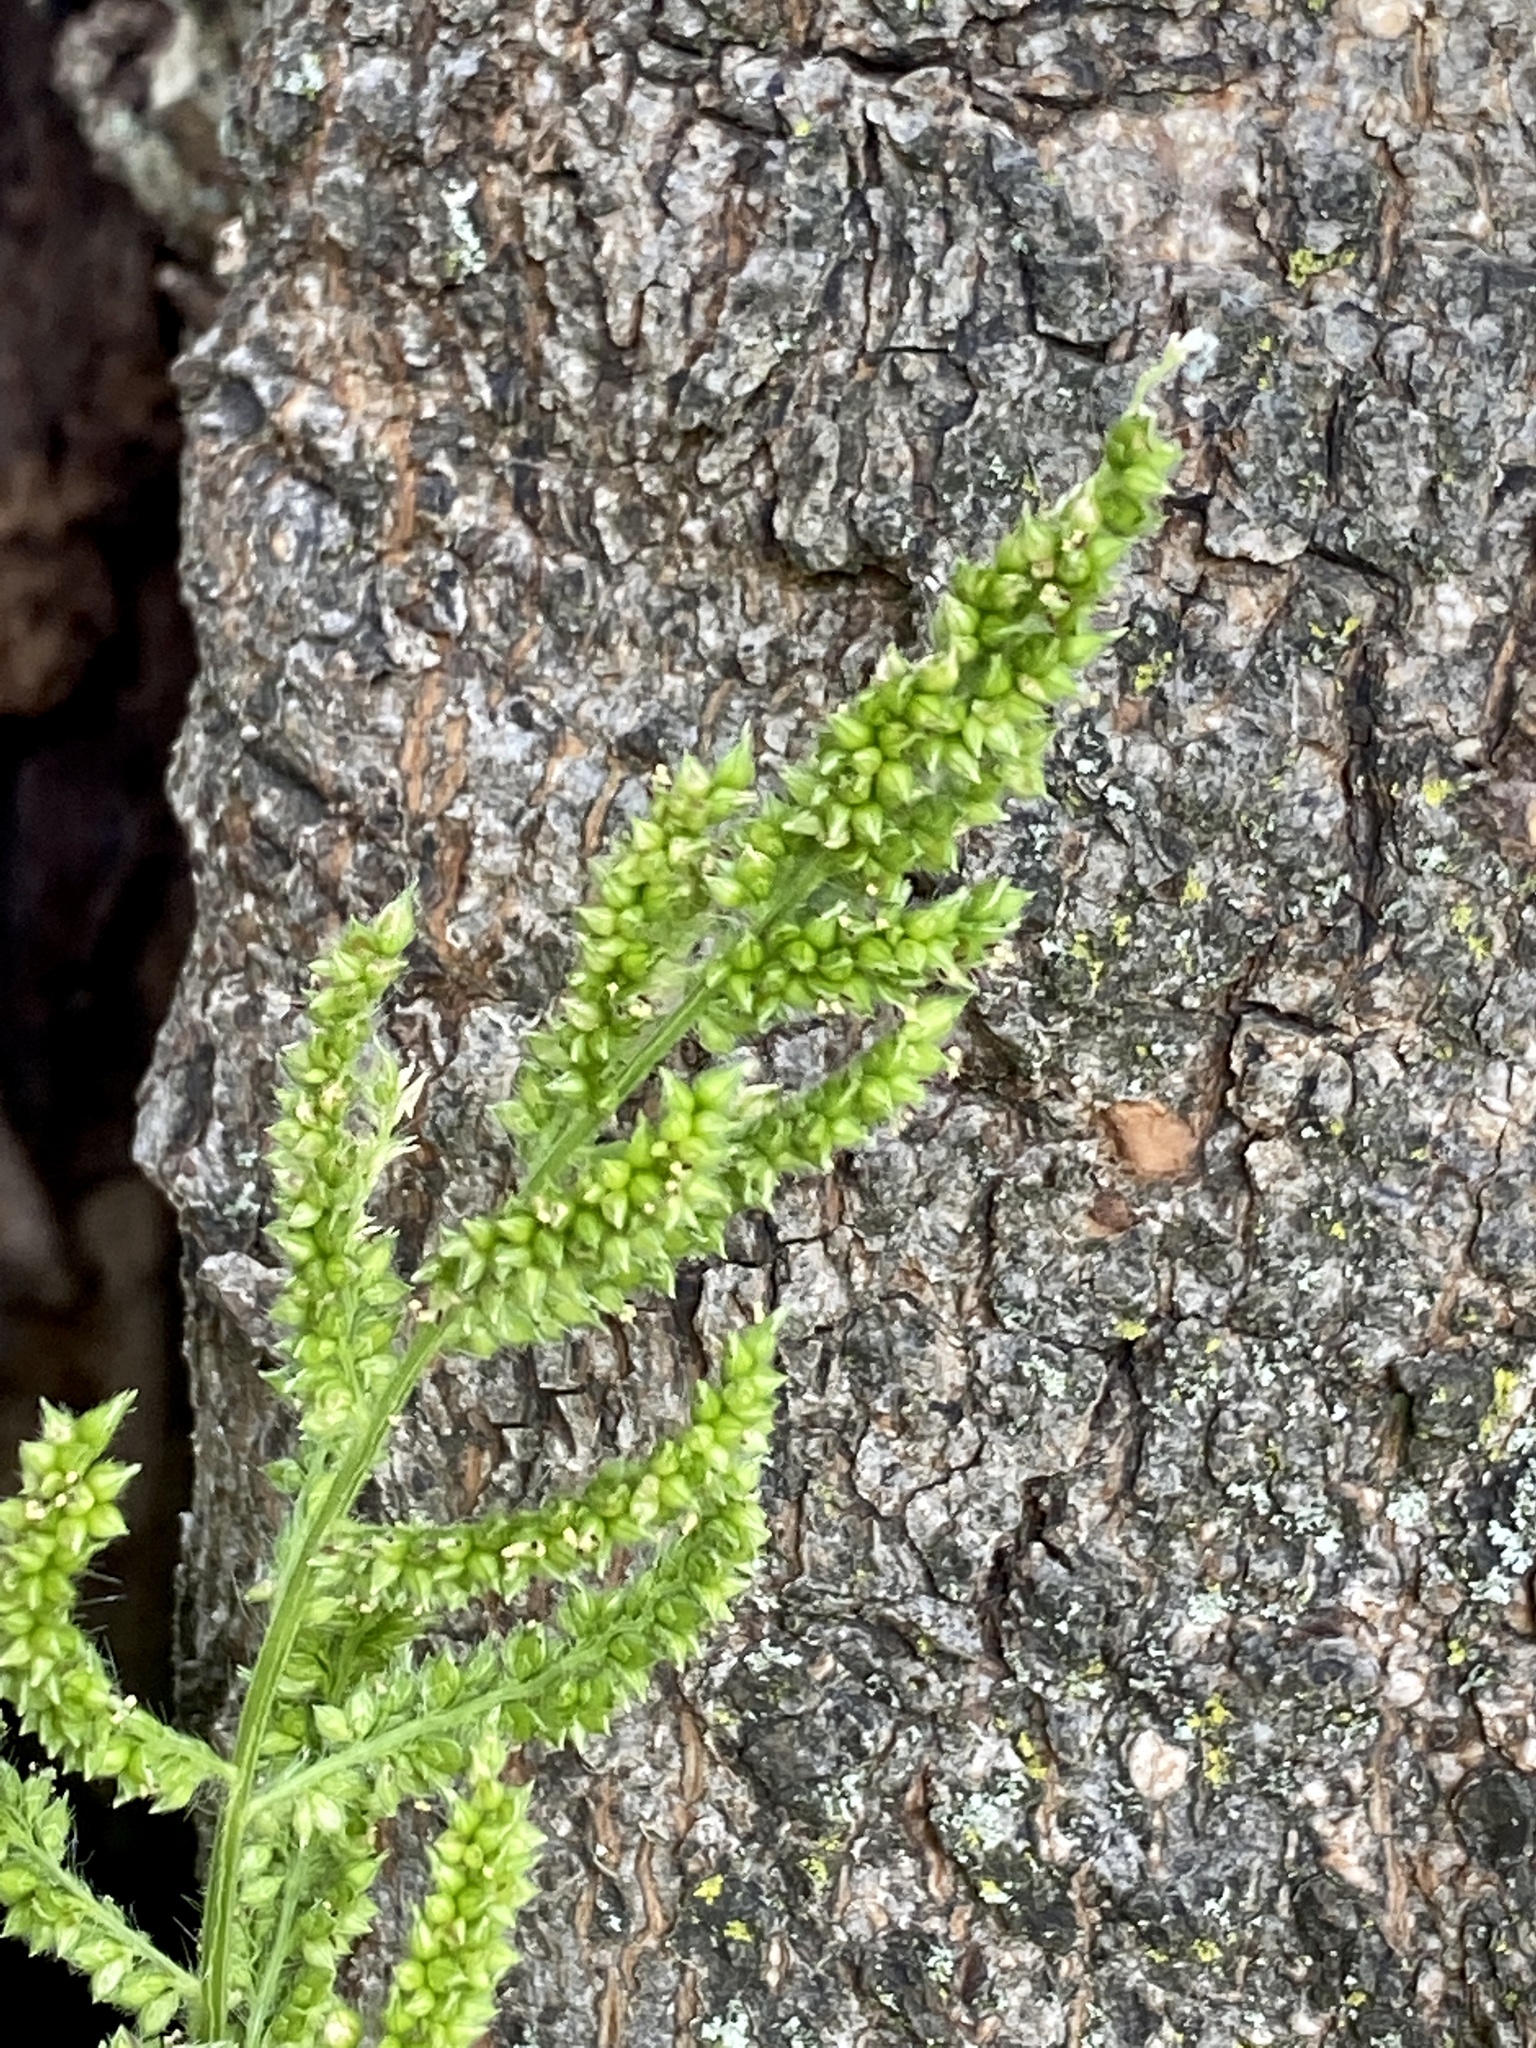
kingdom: Plantae
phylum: Tracheophyta
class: Liliopsida
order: Poales
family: Poaceae
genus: Echinochloa
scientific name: Echinochloa crus-galli
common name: Cockspur
